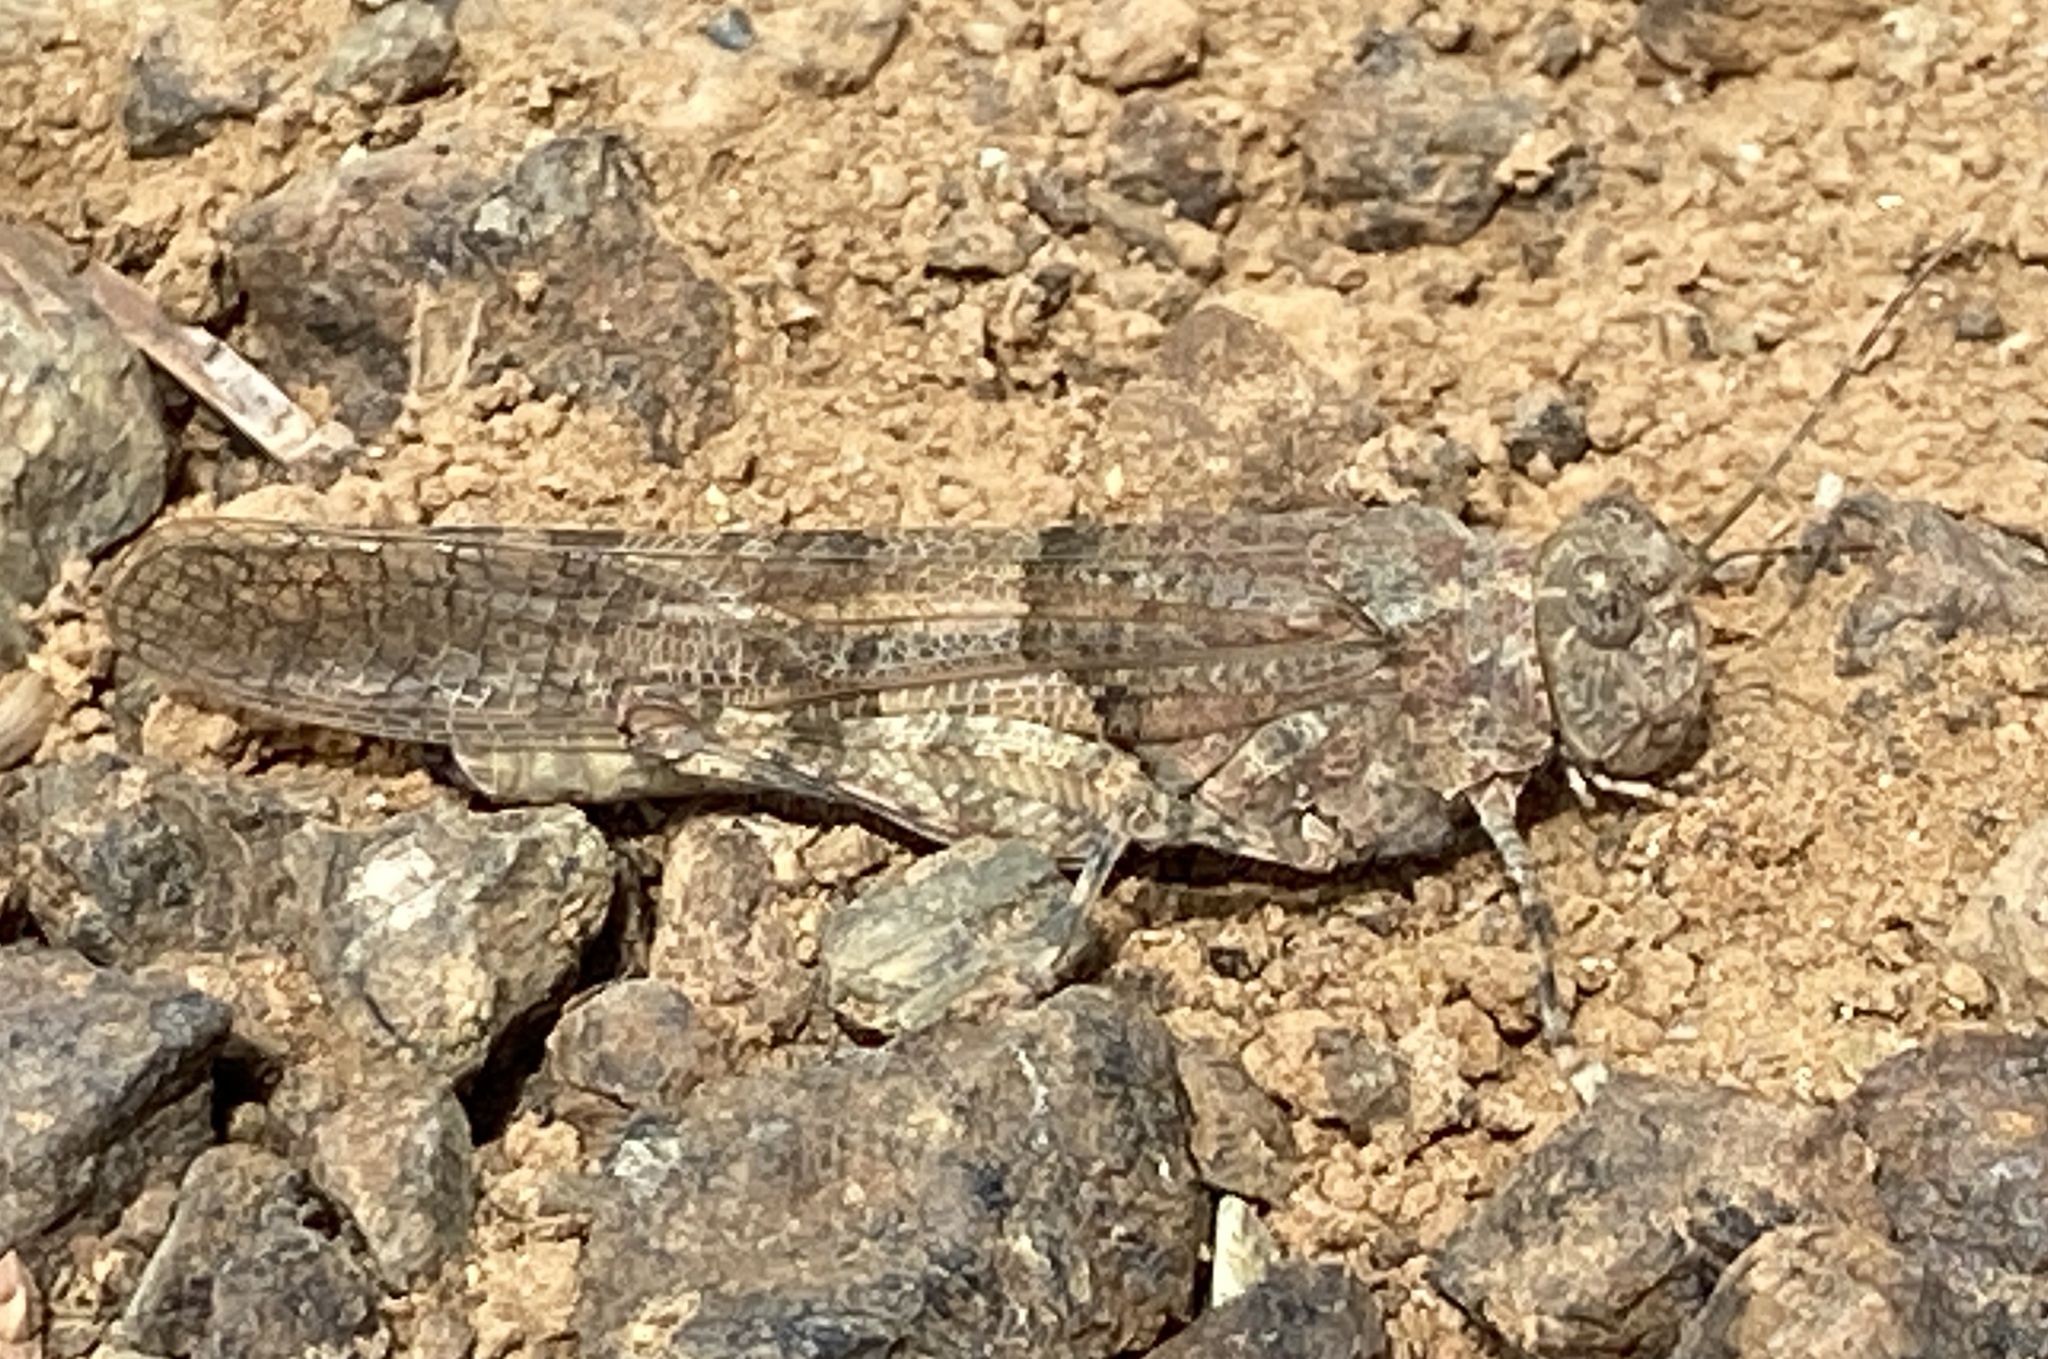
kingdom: Animalia
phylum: Arthropoda
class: Insecta
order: Orthoptera
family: Acrididae
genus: Sphingonotus
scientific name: Sphingonotus caerulans
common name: Blue-winged locust
